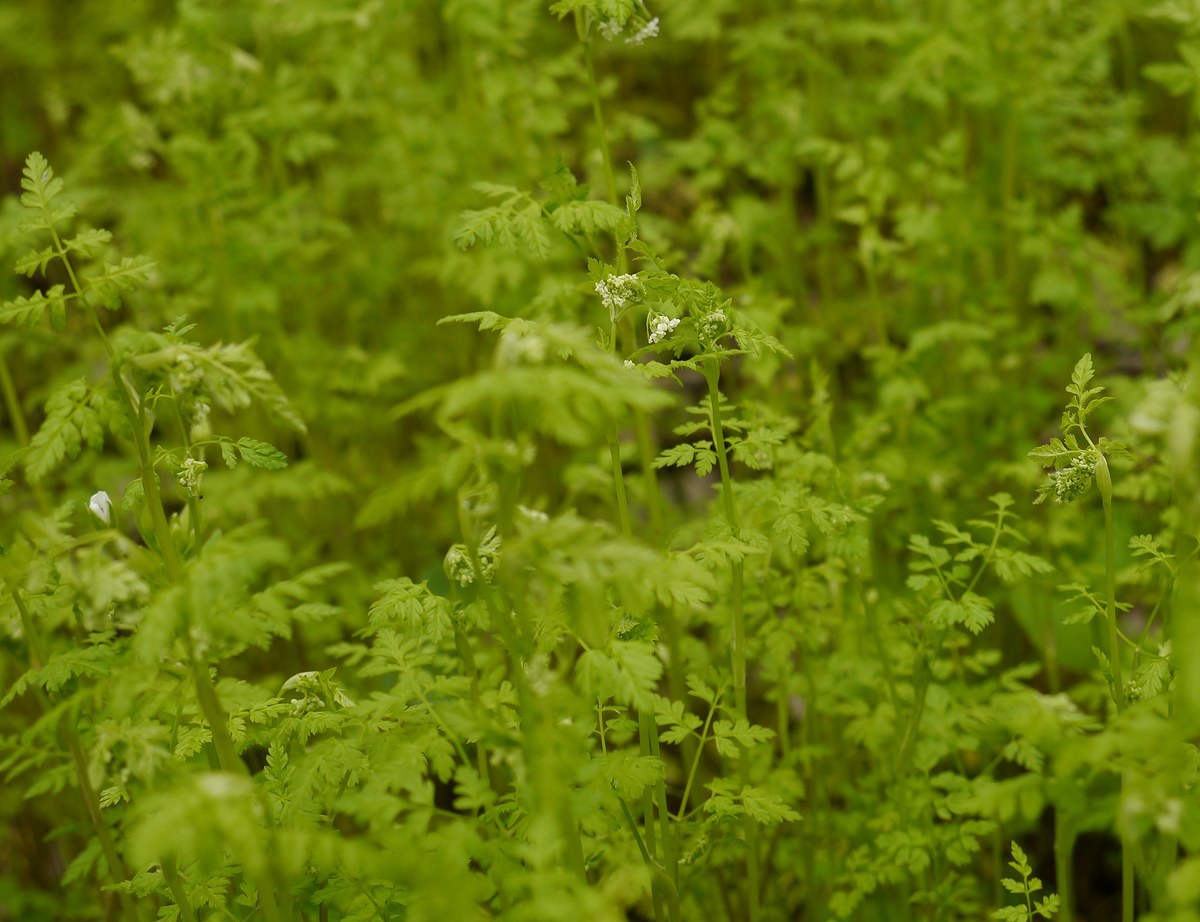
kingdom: Plantae
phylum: Tracheophyta
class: Magnoliopsida
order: Apiales
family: Apiaceae
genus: Anthriscus
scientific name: Anthriscus cerefolium
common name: Garden chervil
